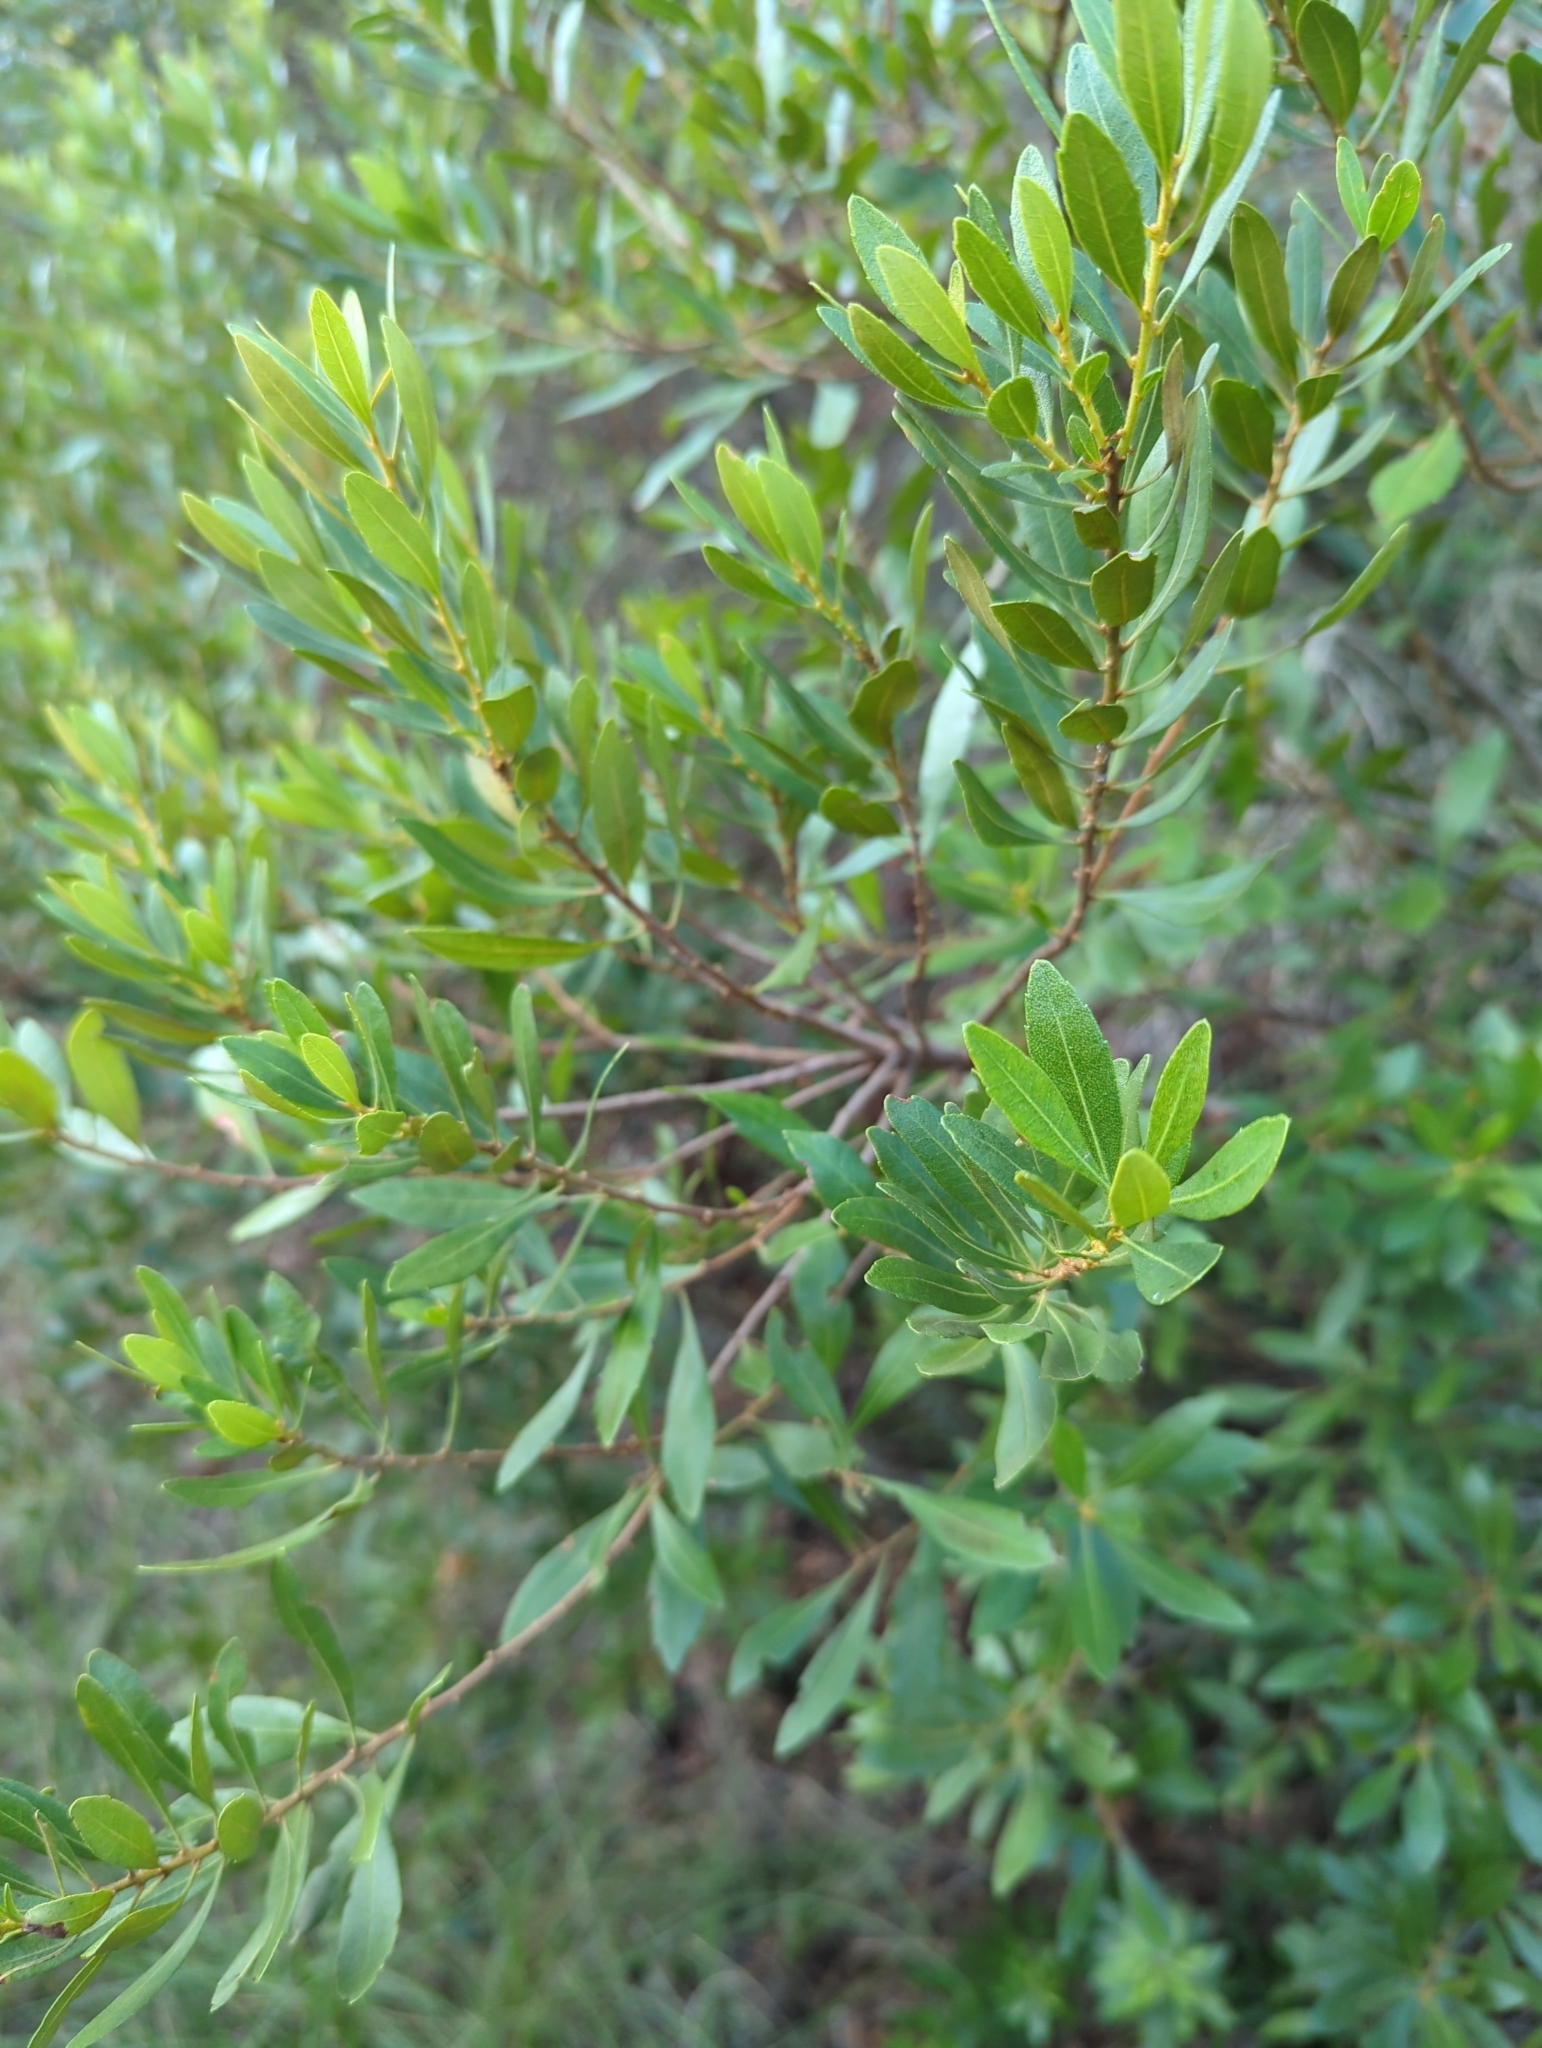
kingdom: Plantae
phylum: Tracheophyta
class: Magnoliopsida
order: Fagales
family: Myricaceae
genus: Morella
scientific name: Morella cerifera
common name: Wax myrtle
